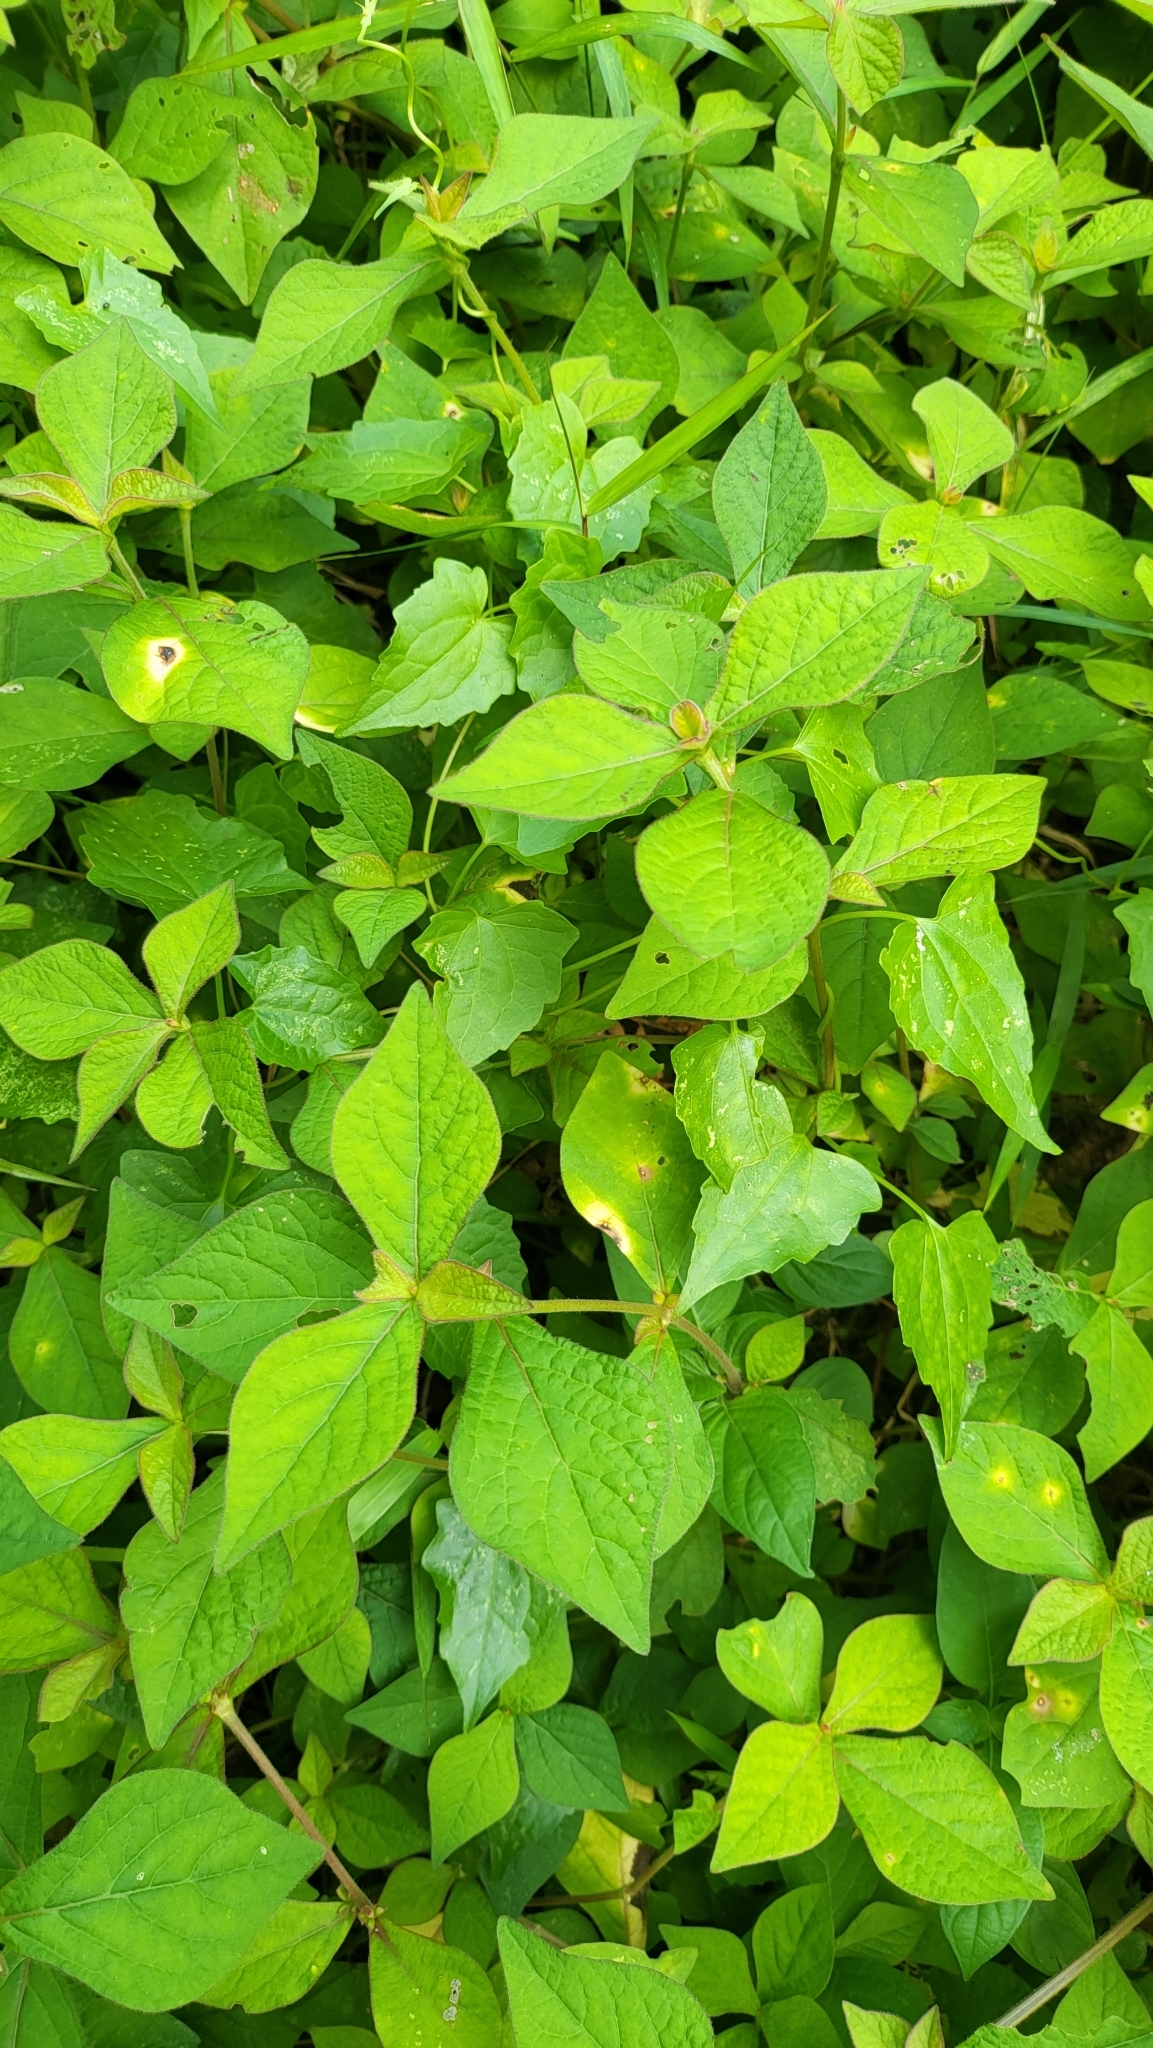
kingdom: Plantae
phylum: Tracheophyta
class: Magnoliopsida
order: Caryophyllales
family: Amaranthaceae
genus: Cyathula
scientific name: Cyathula prostrata
